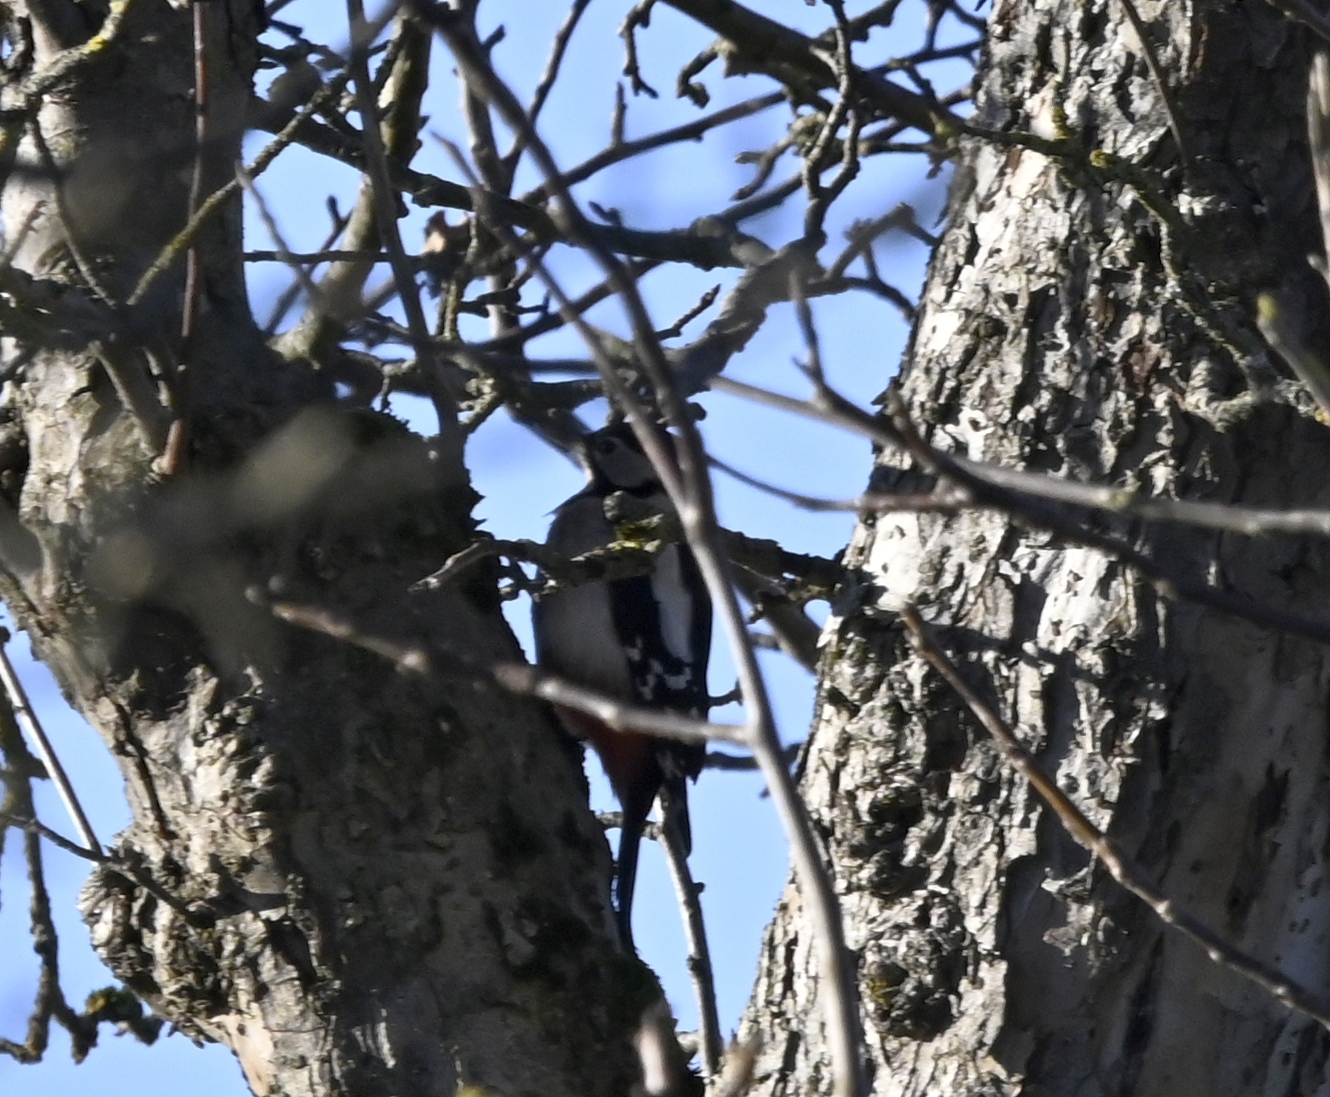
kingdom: Animalia
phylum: Chordata
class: Aves
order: Piciformes
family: Picidae
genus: Dendrocopos
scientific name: Dendrocopos major
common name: Great spotted woodpecker
